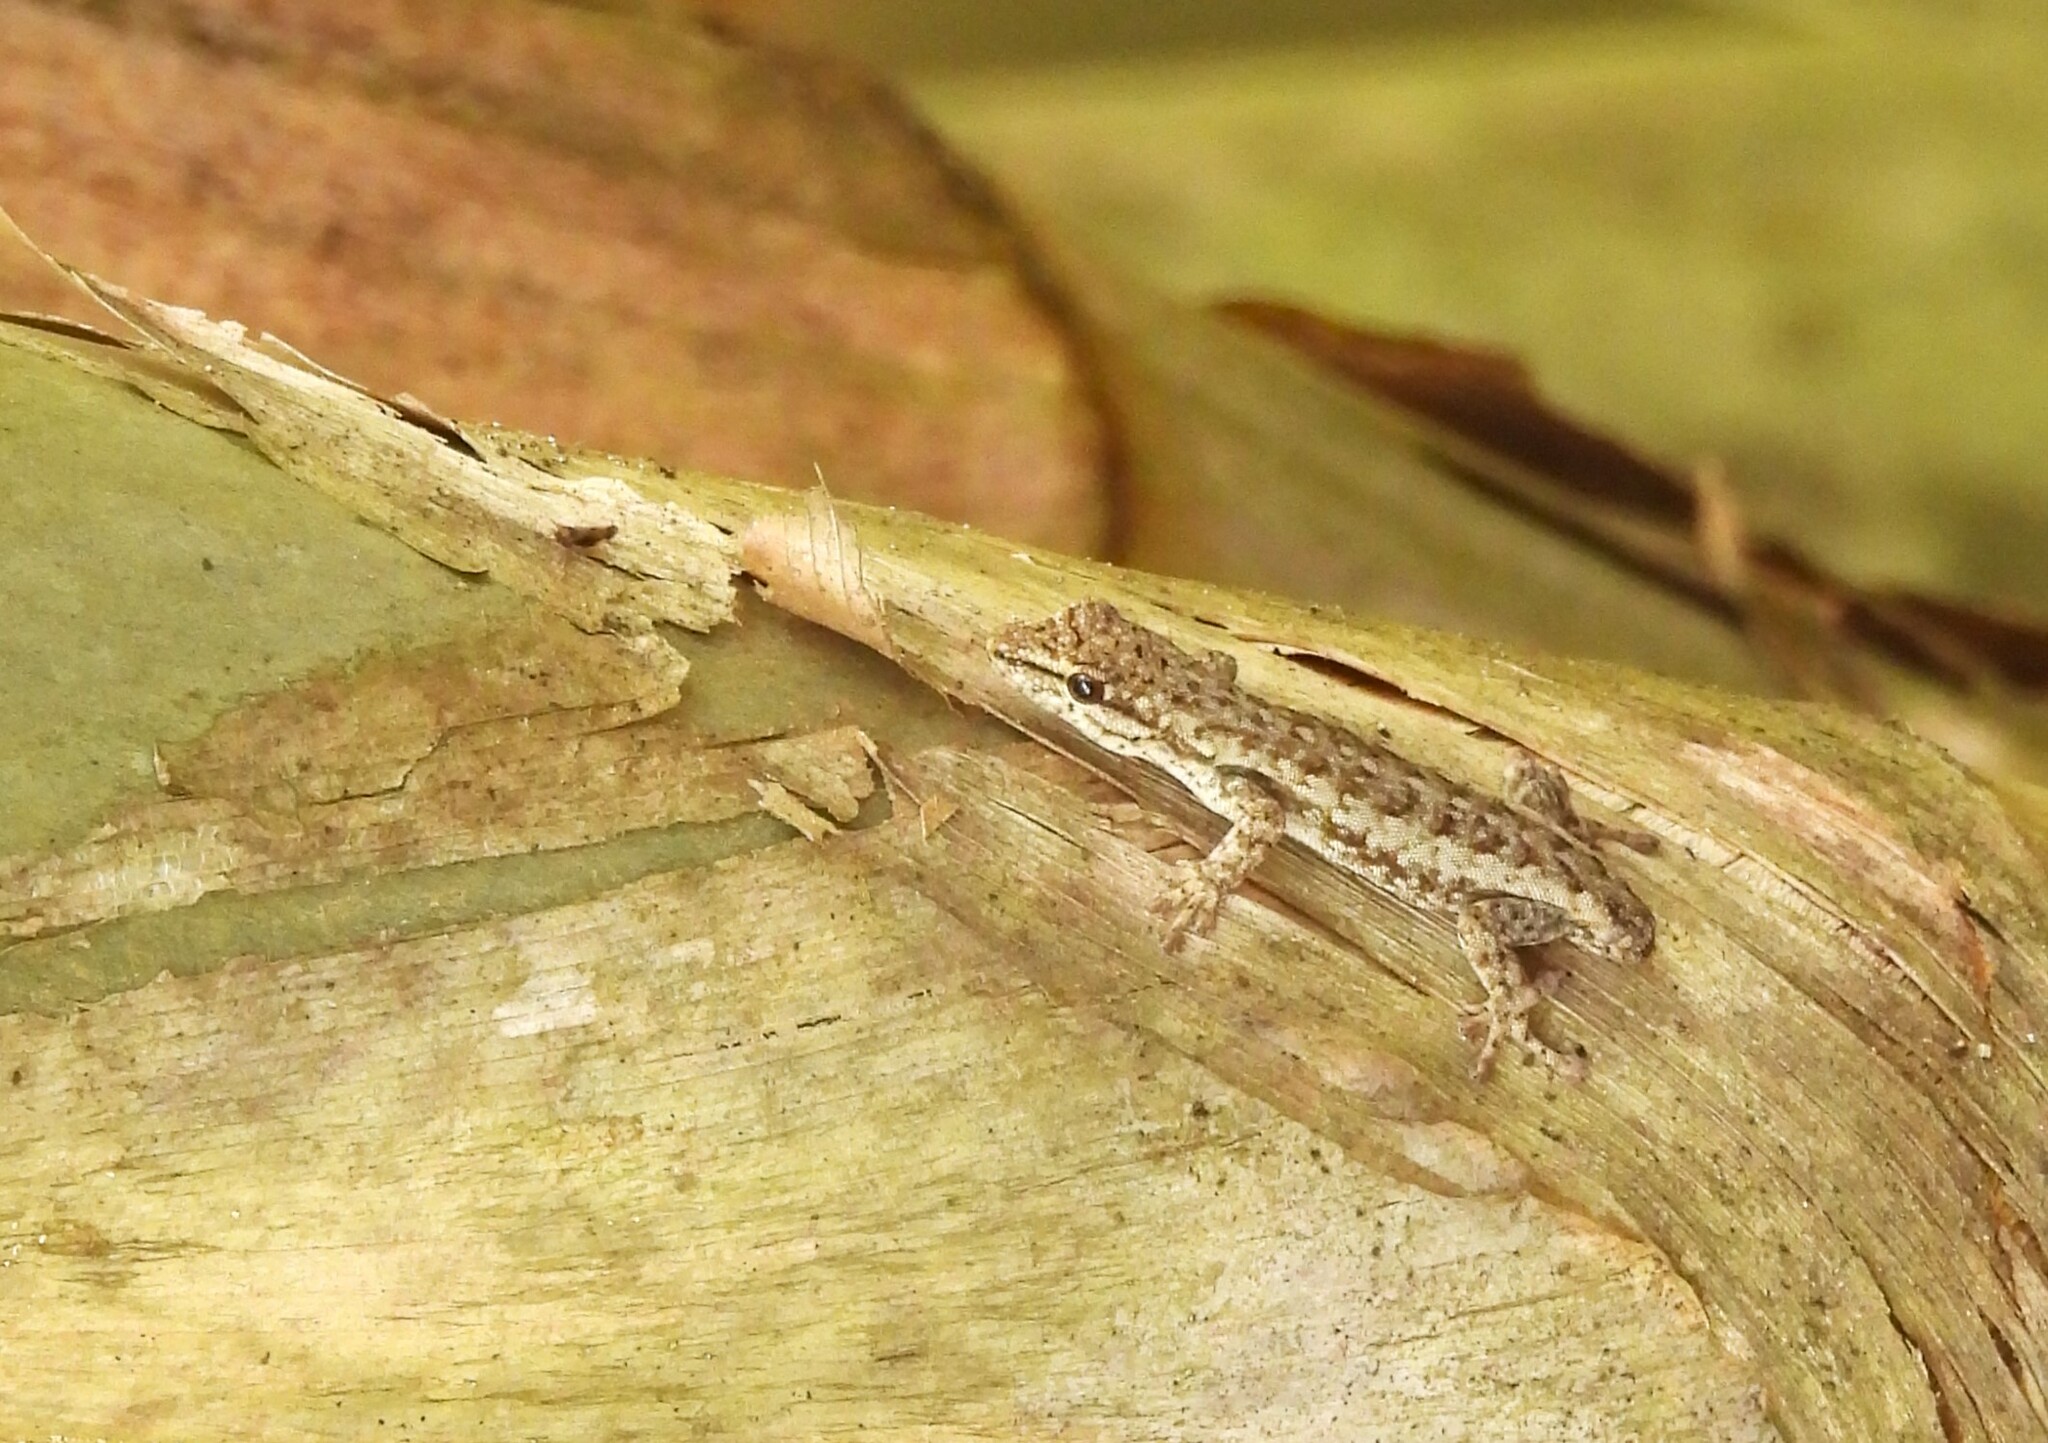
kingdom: Animalia
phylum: Chordata
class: Squamata
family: Gekkonidae
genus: Lygodactylus
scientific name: Lygodactylus angularis
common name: Angulate dwarf gecko
